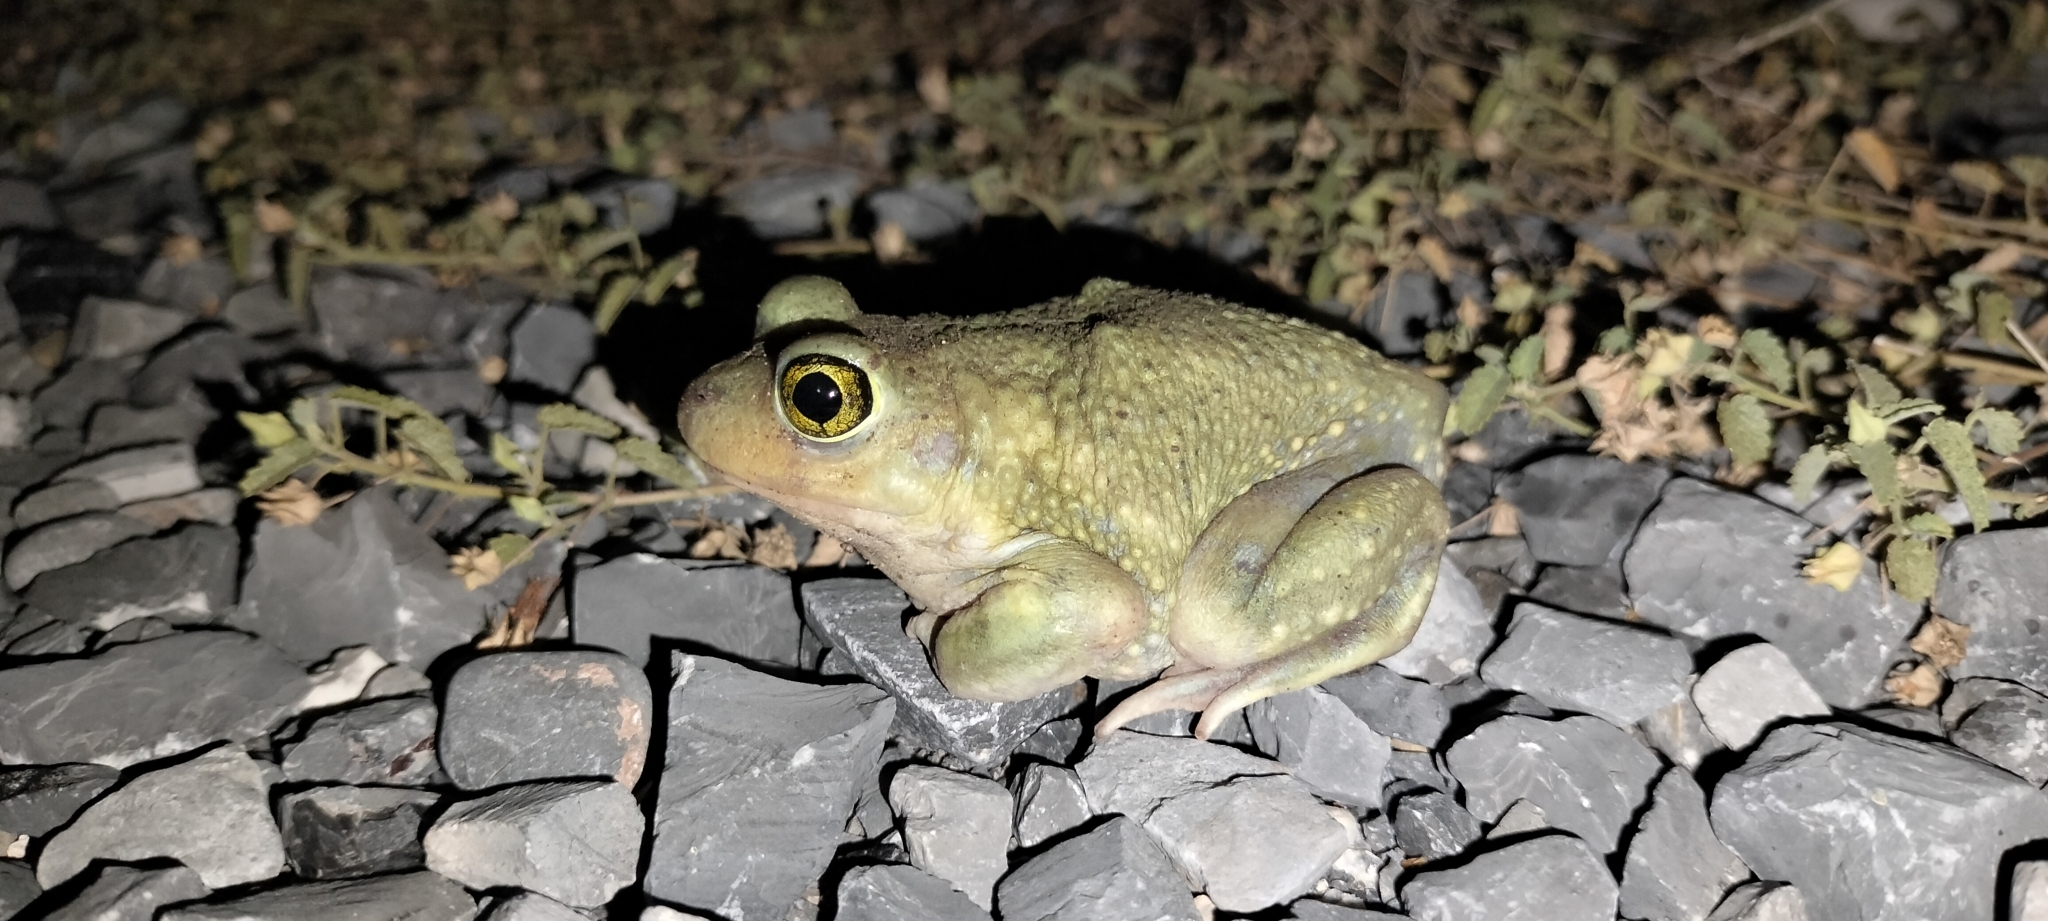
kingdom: Animalia
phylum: Chordata
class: Amphibia
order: Anura
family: Scaphiopodidae
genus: Scaphiopus
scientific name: Scaphiopus couchii
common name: Couch's spadefoot toad
